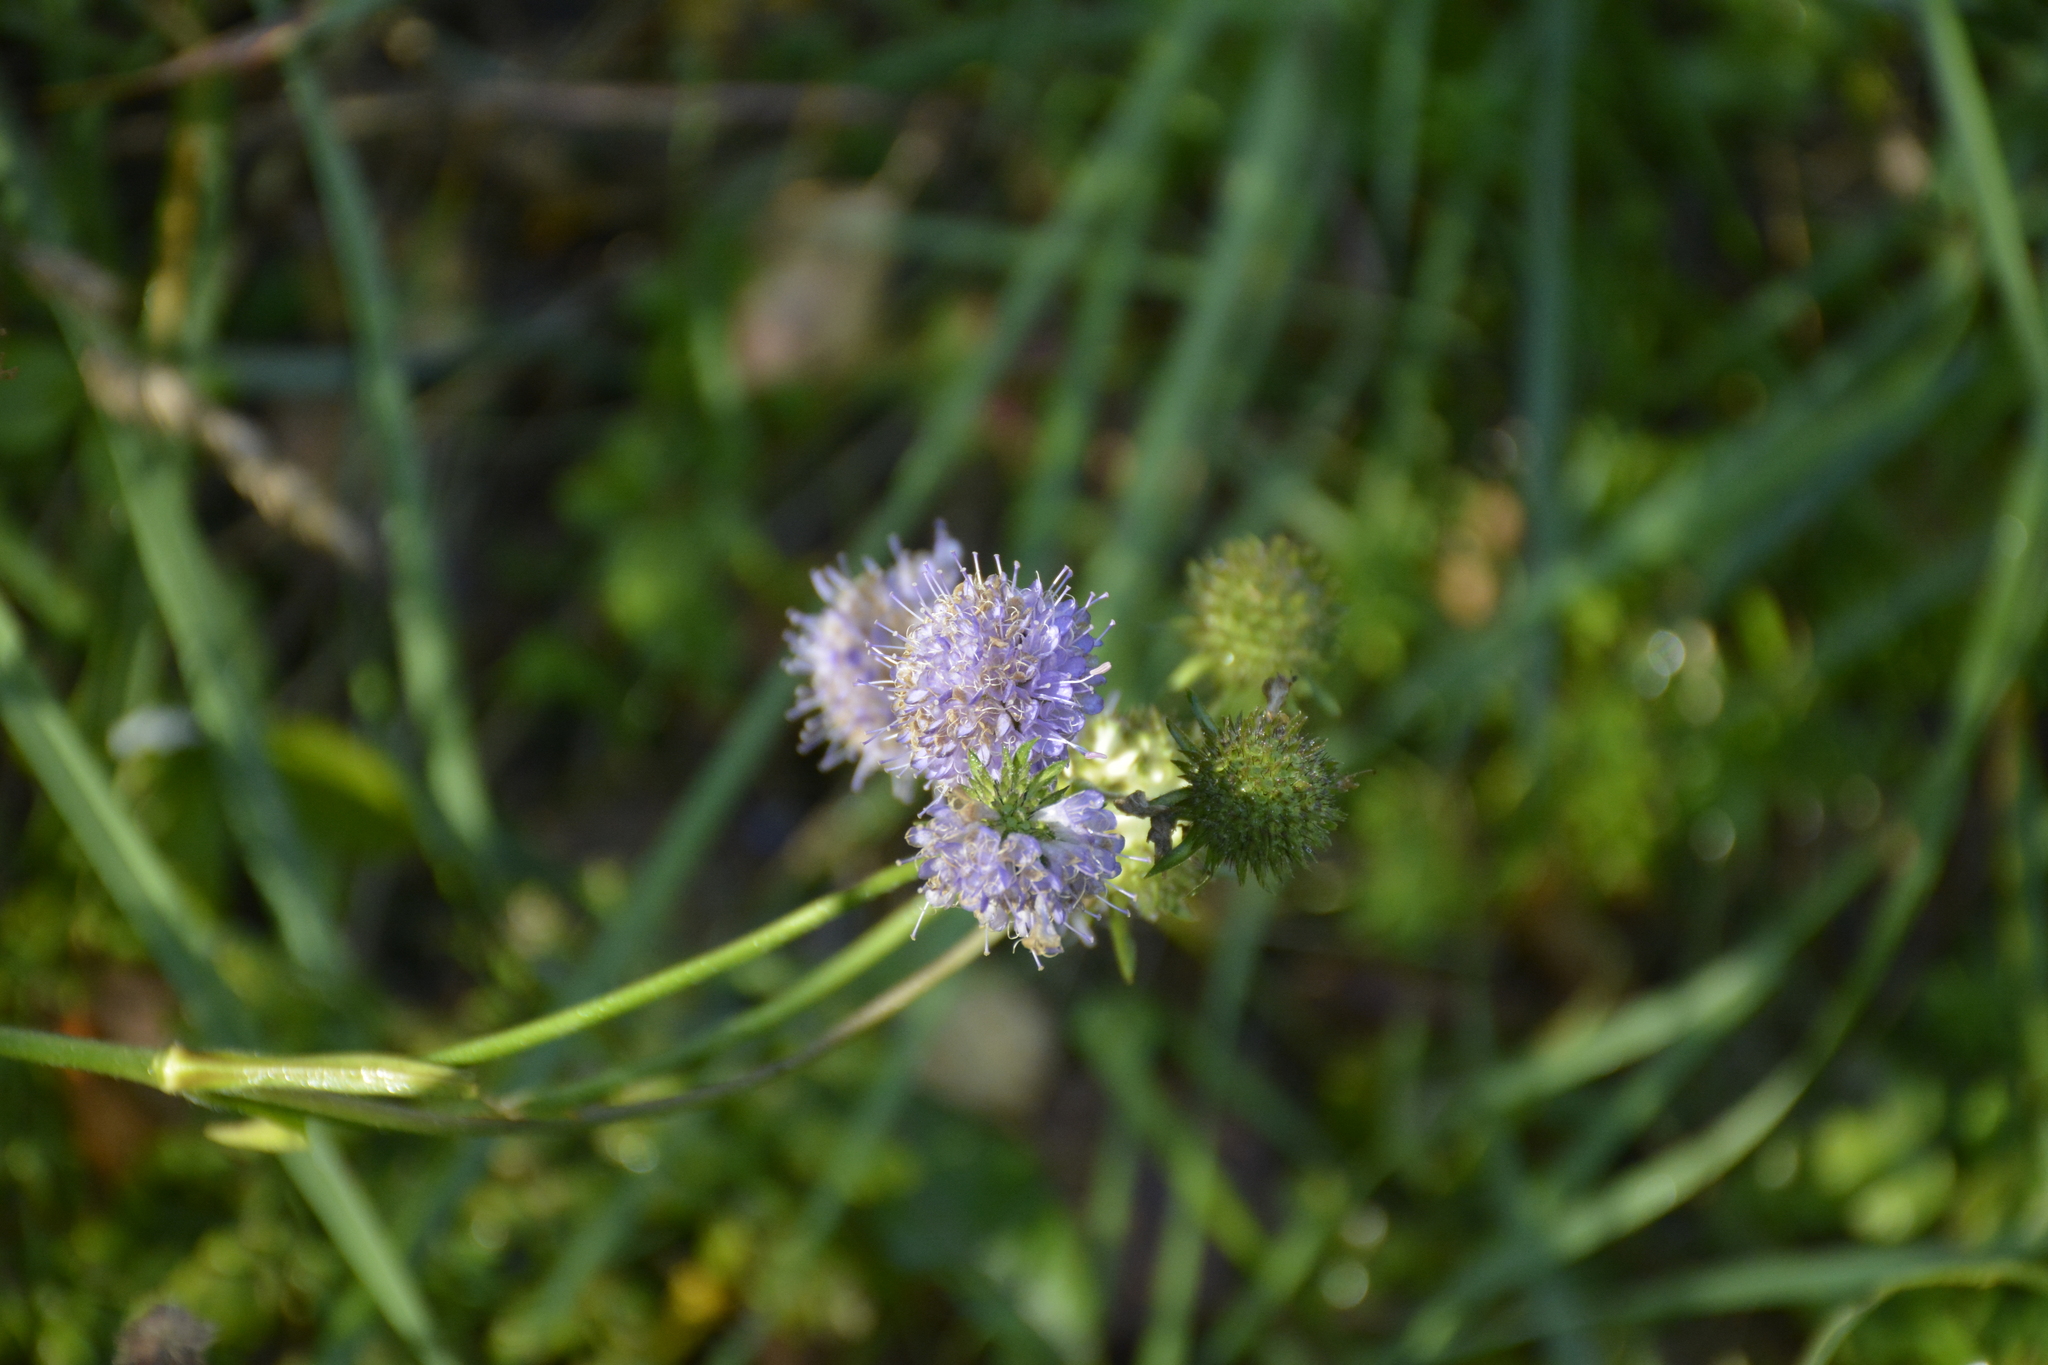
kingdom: Plantae
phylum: Tracheophyta
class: Magnoliopsida
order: Dipsacales
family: Caprifoliaceae
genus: Succisa
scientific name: Succisa pratensis
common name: Devil's-bit
